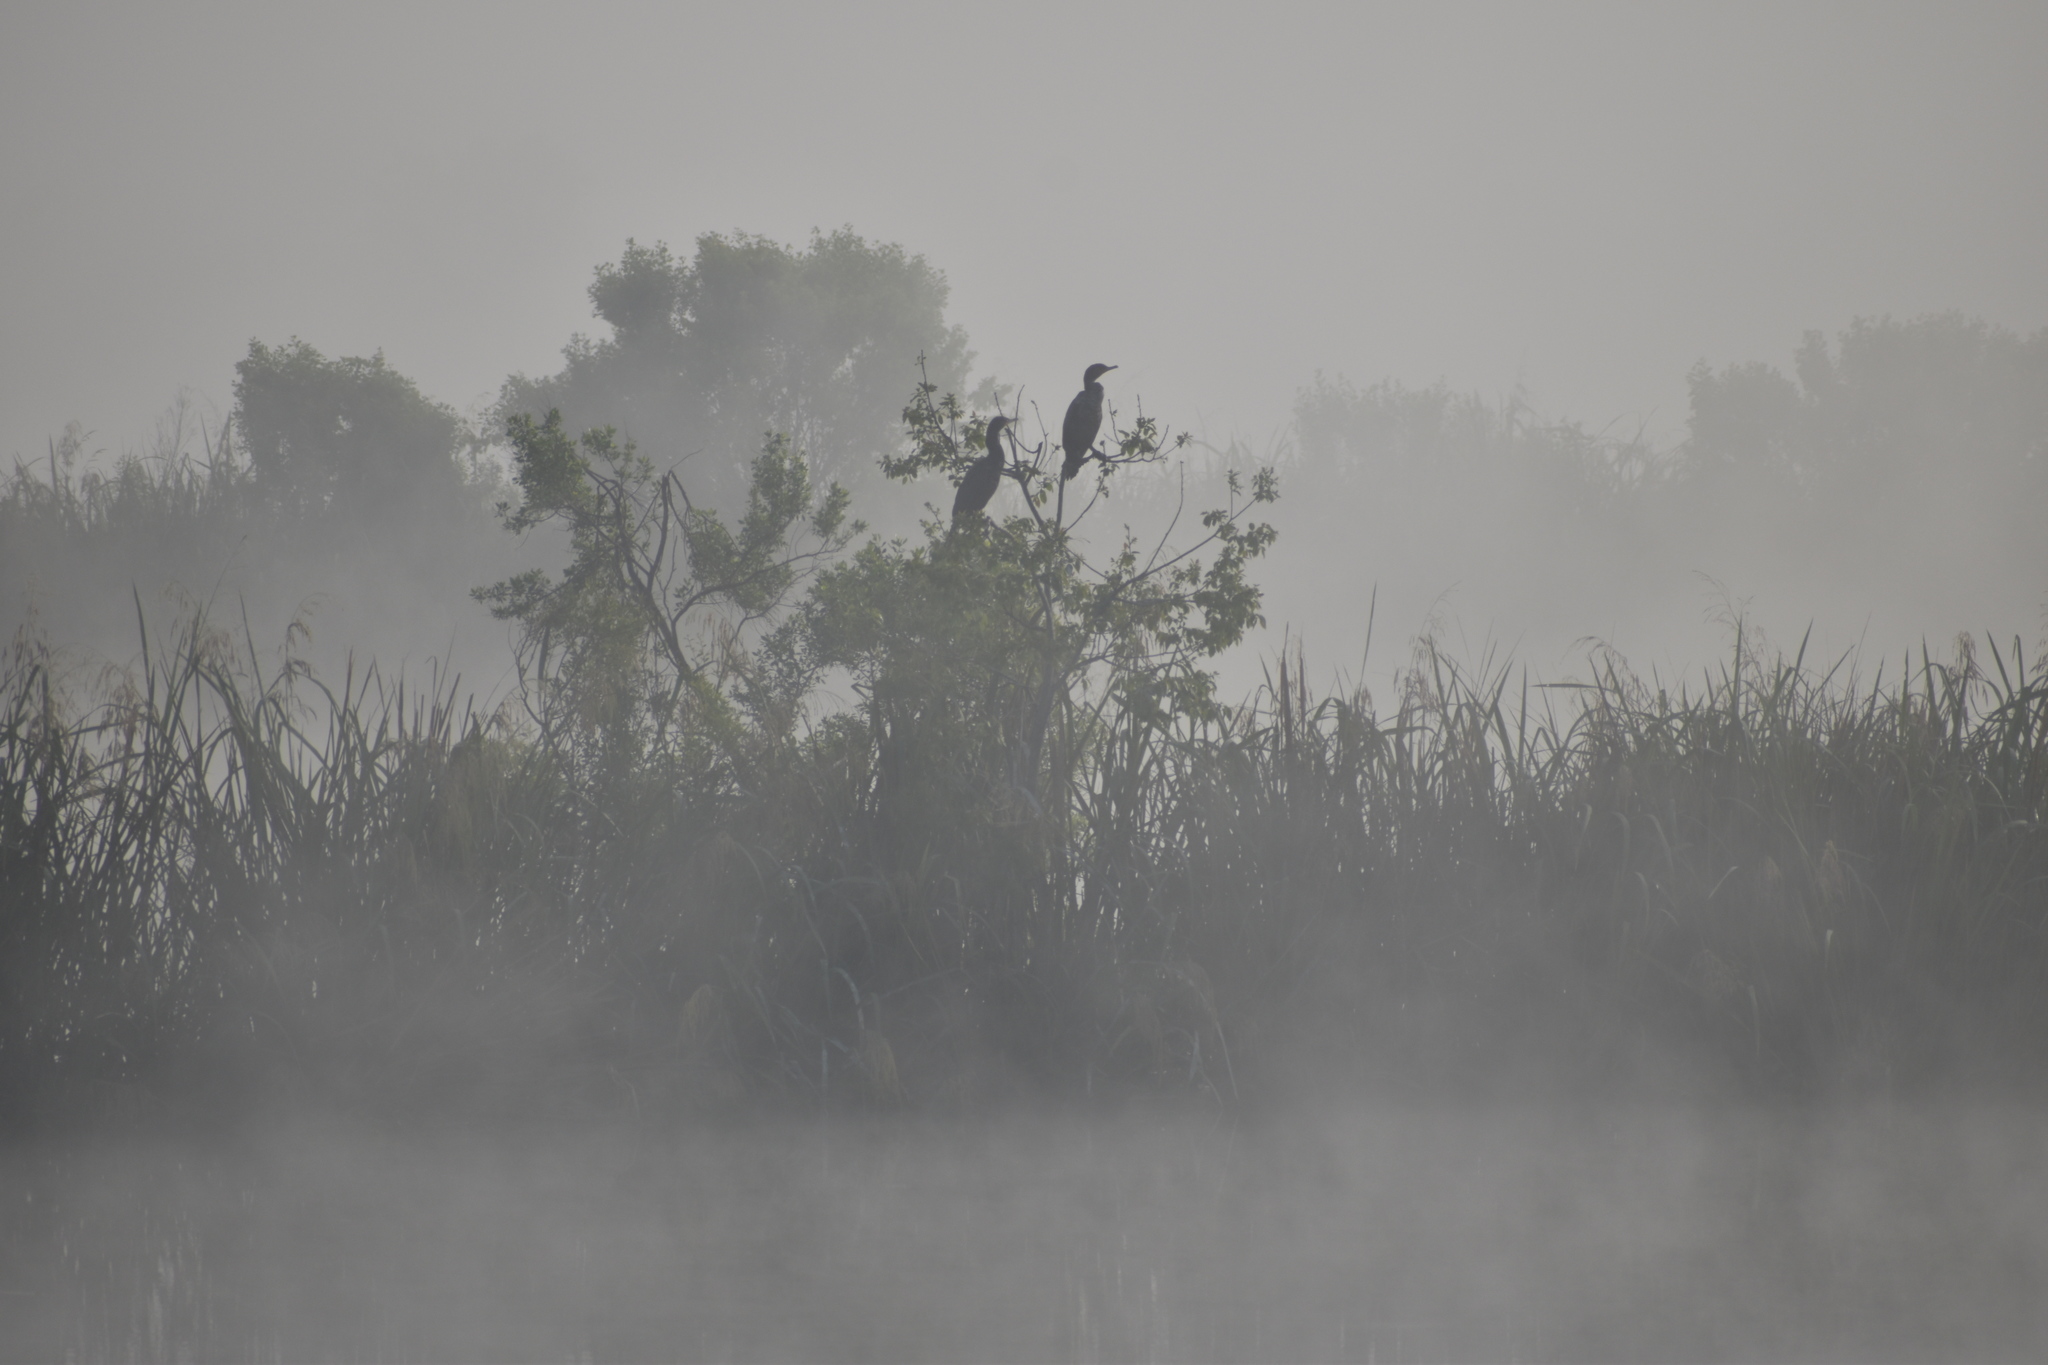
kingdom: Animalia
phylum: Chordata
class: Aves
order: Suliformes
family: Phalacrocoracidae
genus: Phalacrocorax
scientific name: Phalacrocorax auritus
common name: Double-crested cormorant
